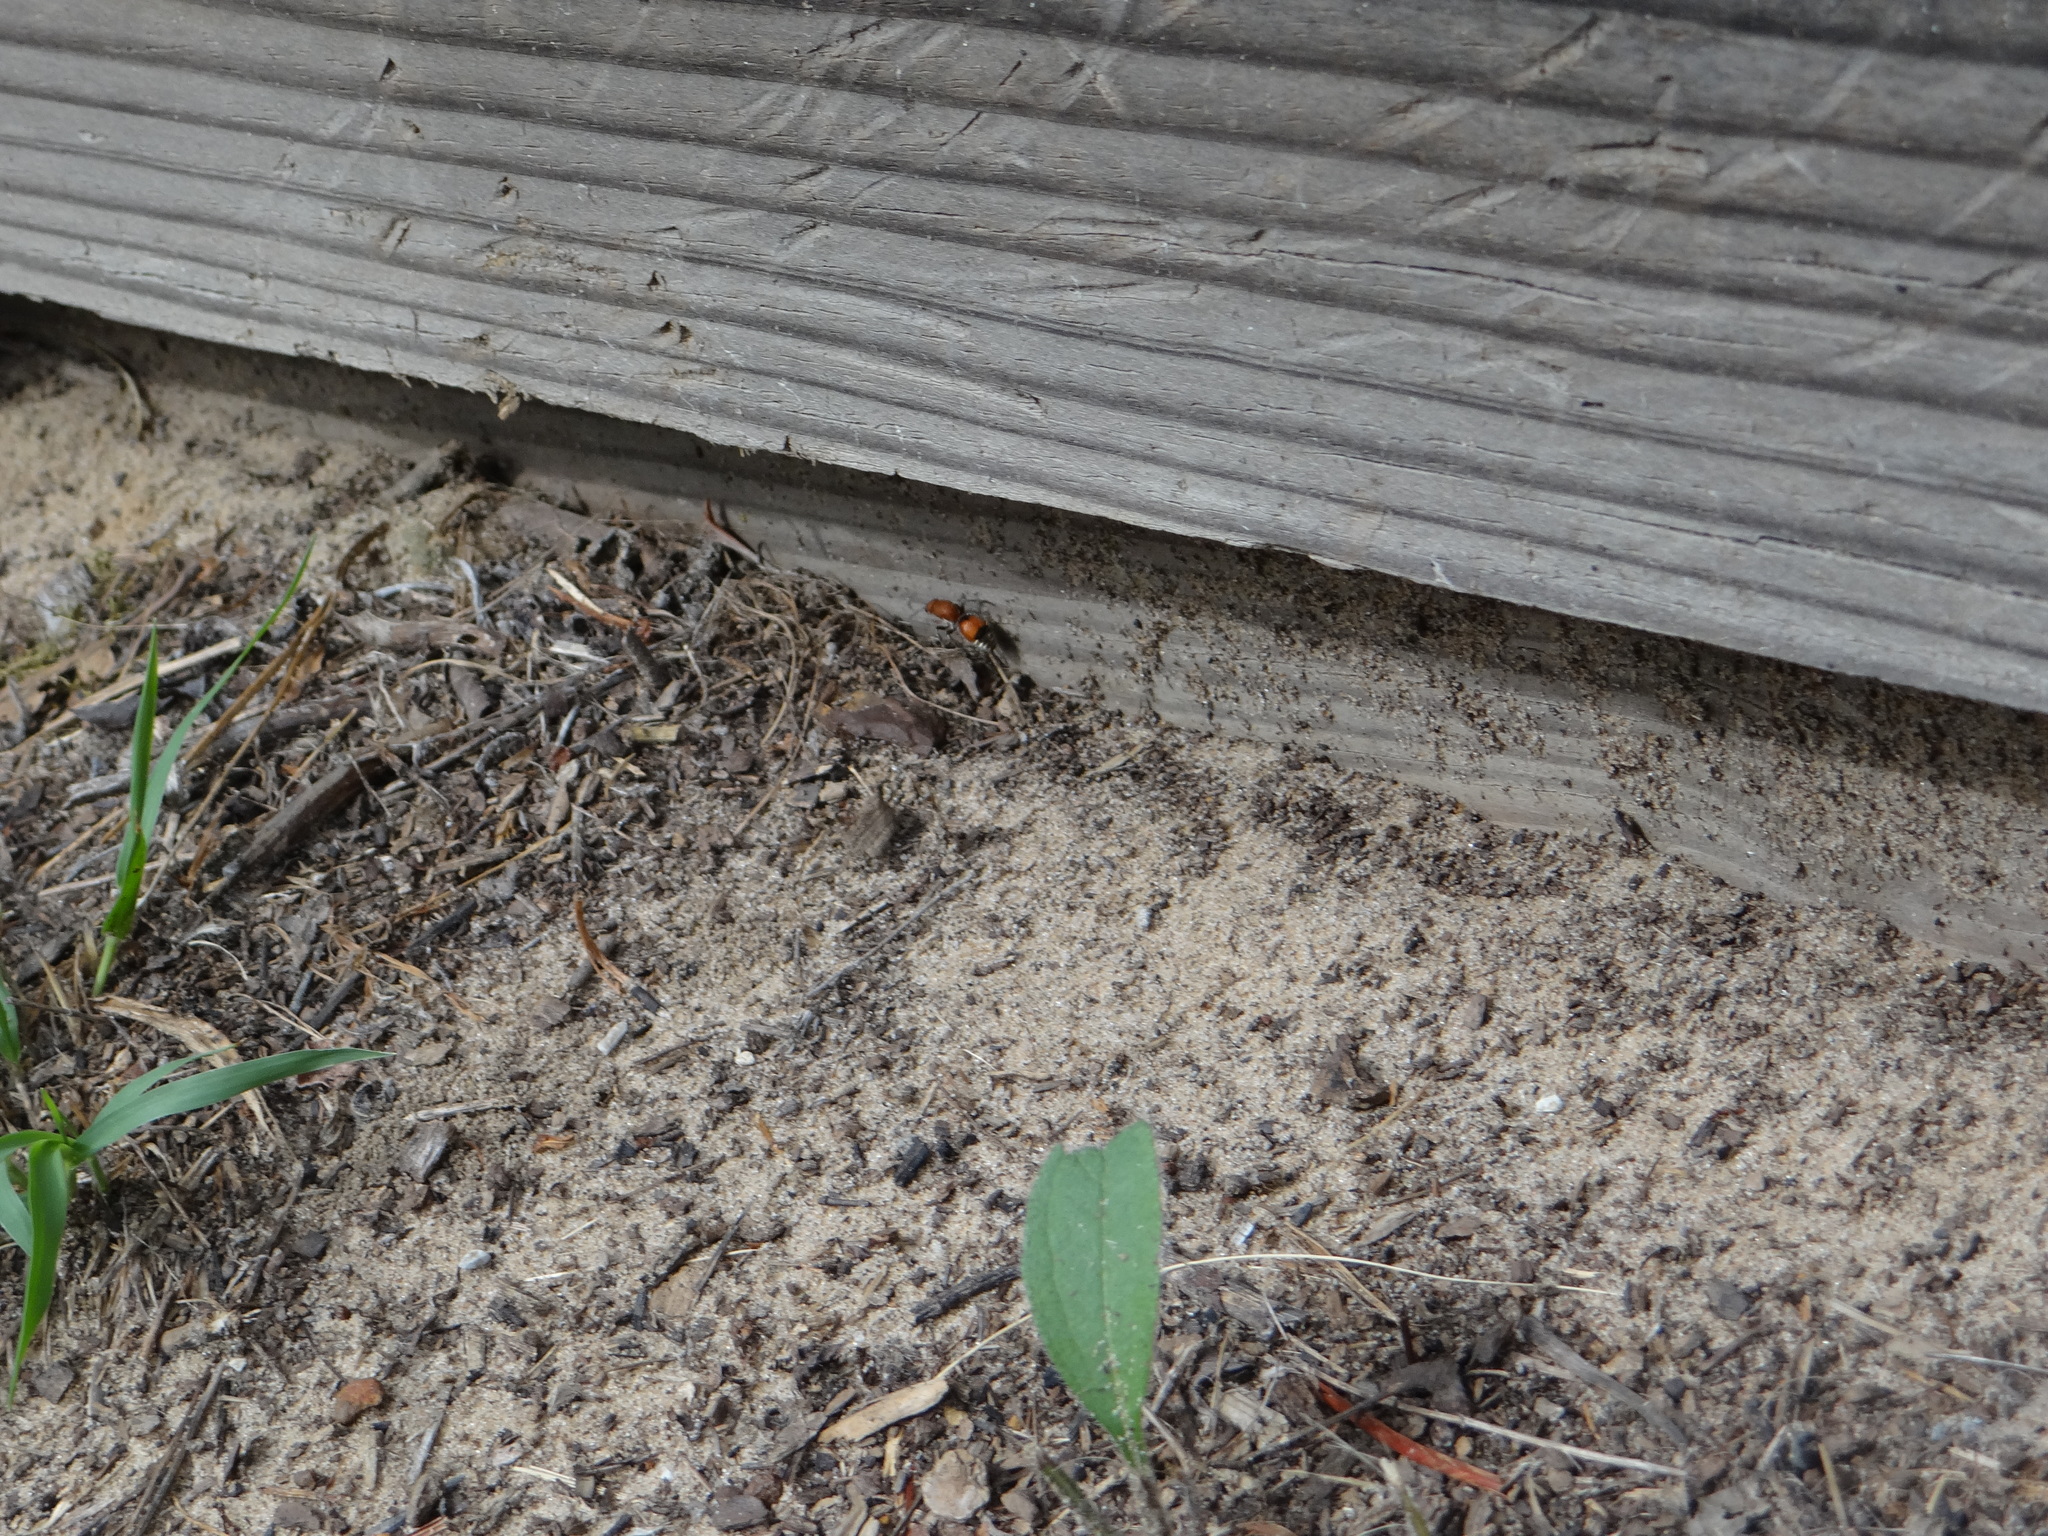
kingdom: Animalia
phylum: Arthropoda
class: Insecta
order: Hymenoptera
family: Mutillidae
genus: Dasymutilla
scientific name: Dasymutilla
